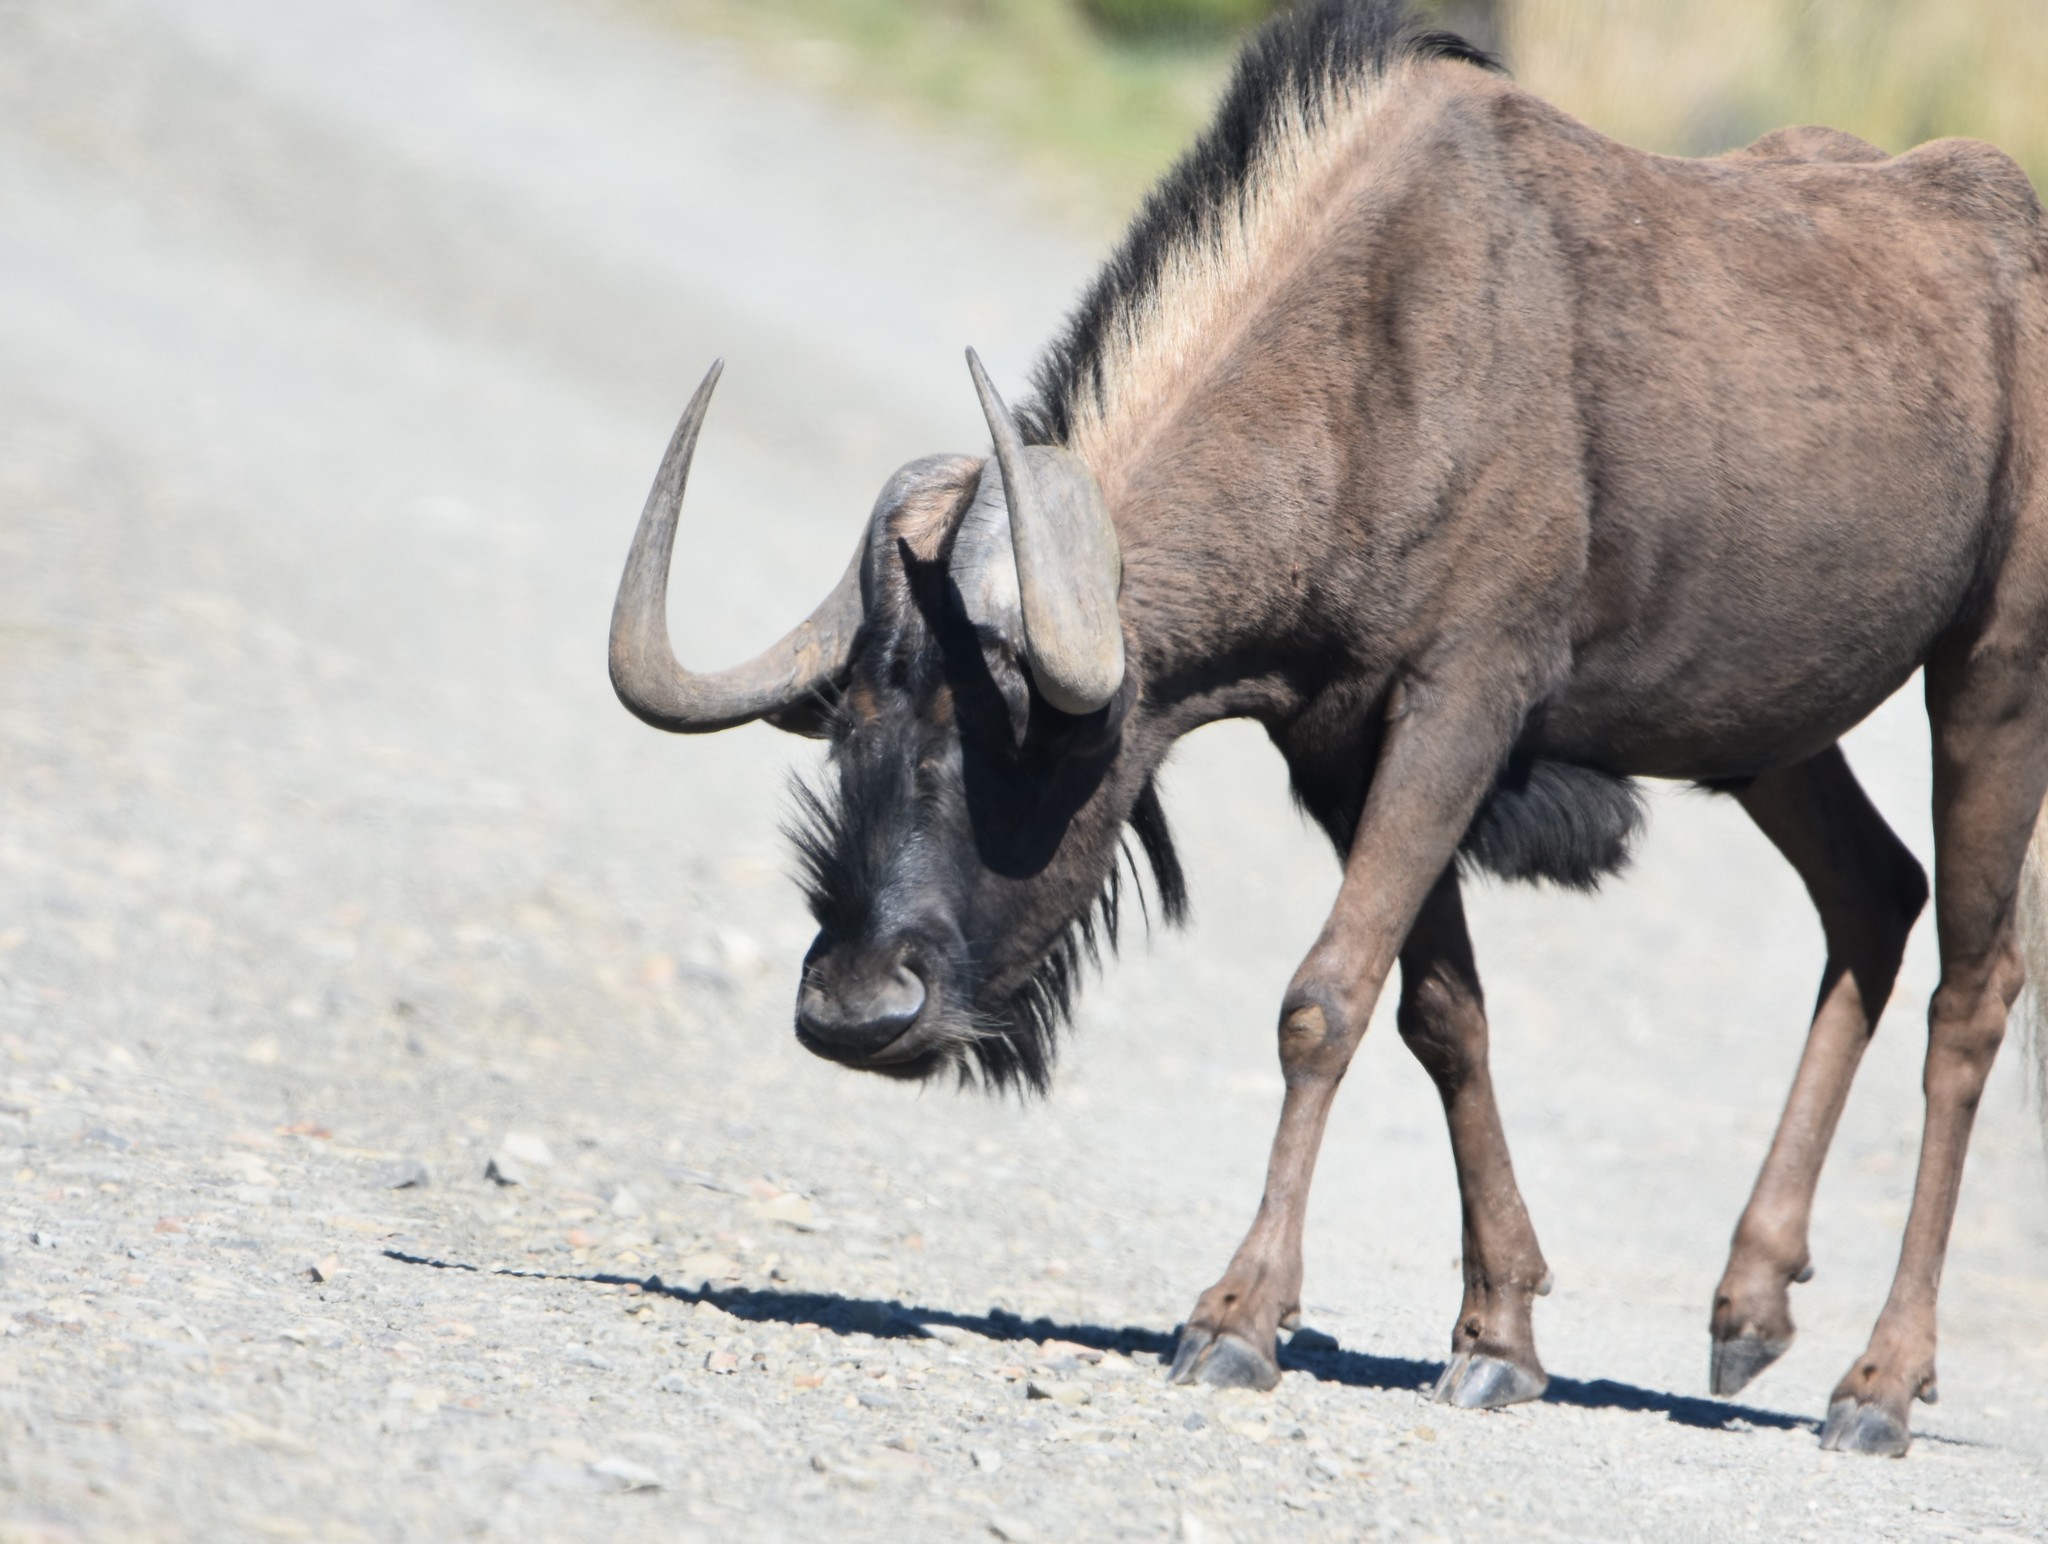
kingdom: Animalia
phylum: Chordata
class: Mammalia
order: Artiodactyla
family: Bovidae
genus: Connochaetes
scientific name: Connochaetes gnou
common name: Black wildebeest
